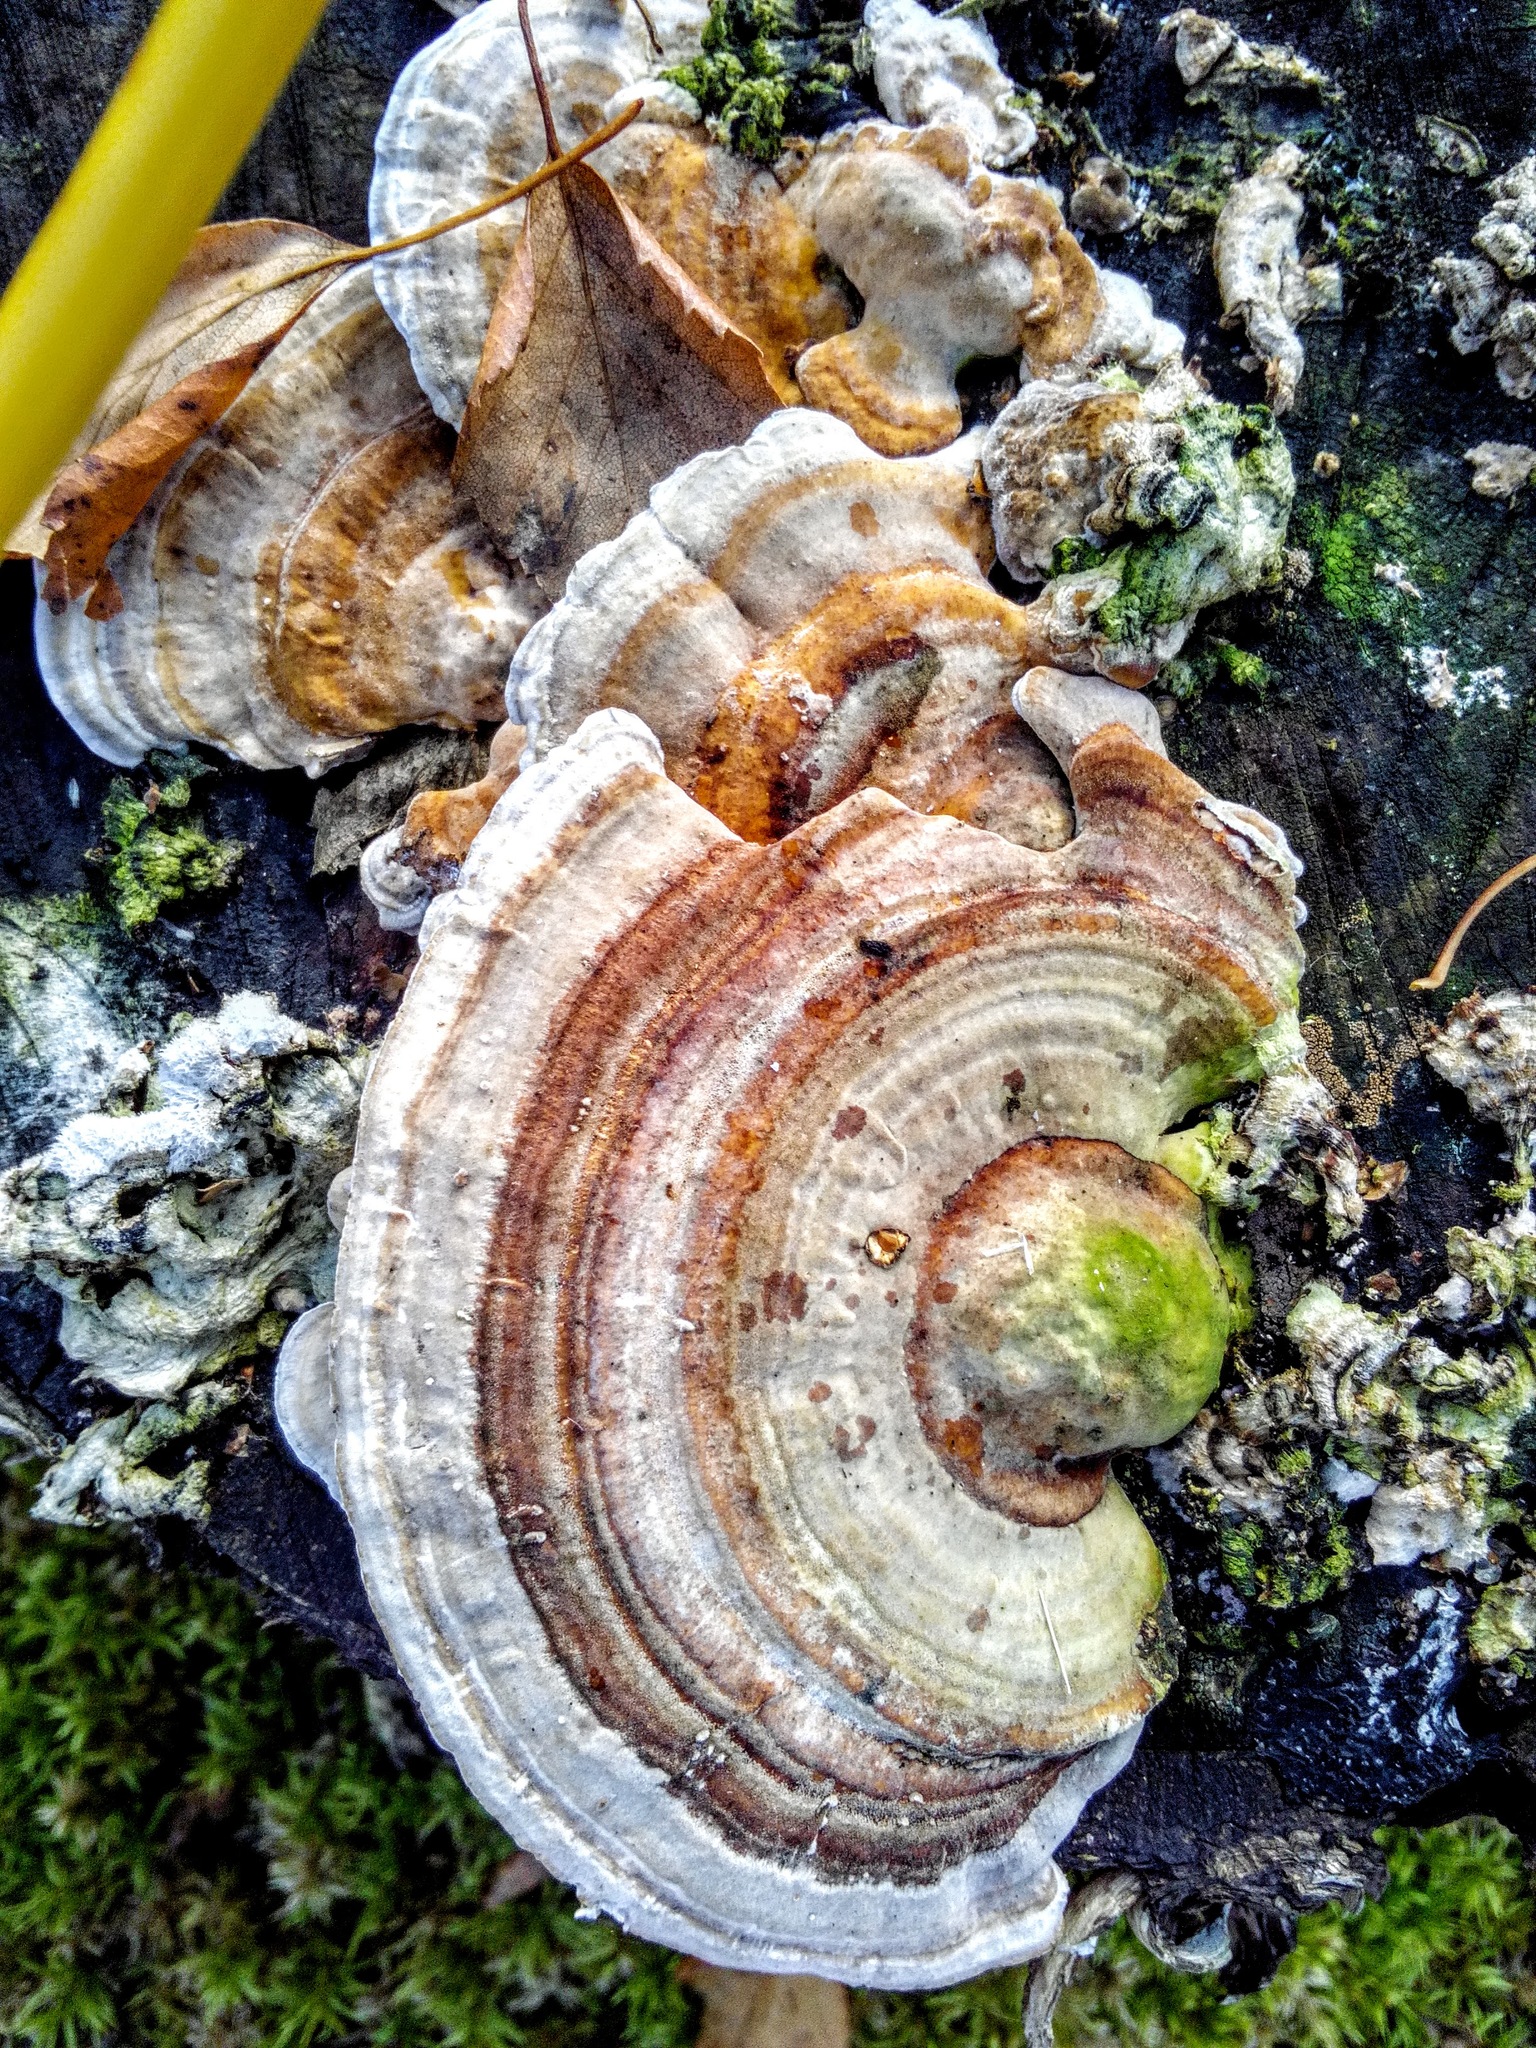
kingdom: Fungi
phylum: Basidiomycota
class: Agaricomycetes
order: Polyporales
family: Polyporaceae
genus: Trametes
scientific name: Trametes versicolor
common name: Turkeytail
